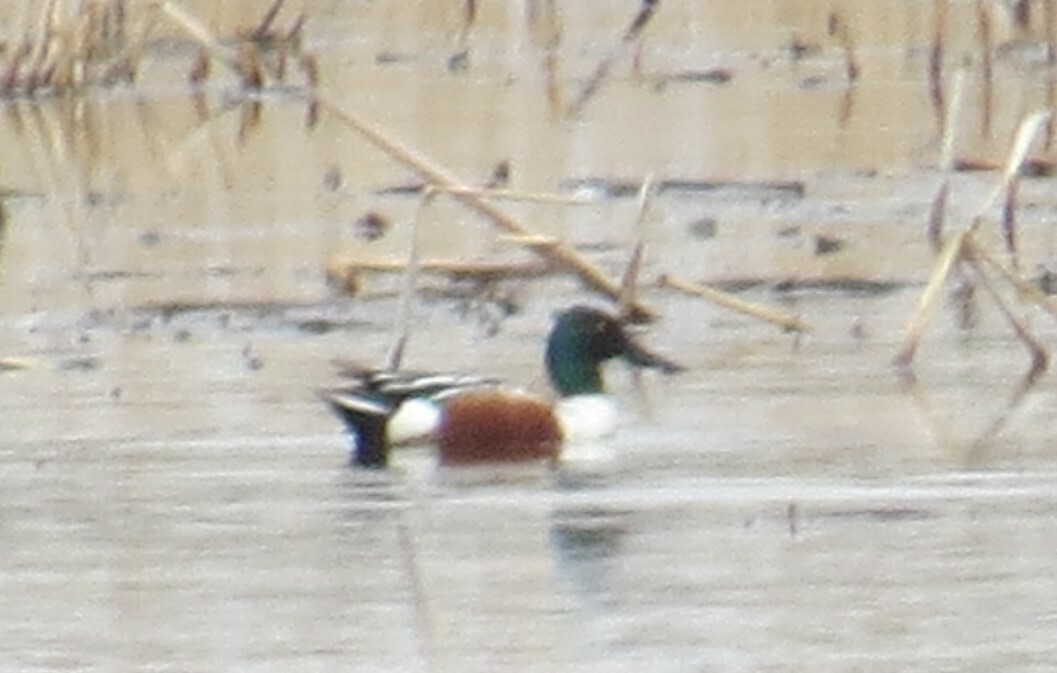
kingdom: Animalia
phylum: Chordata
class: Aves
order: Anseriformes
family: Anatidae
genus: Spatula
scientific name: Spatula clypeata
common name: Northern shoveler
